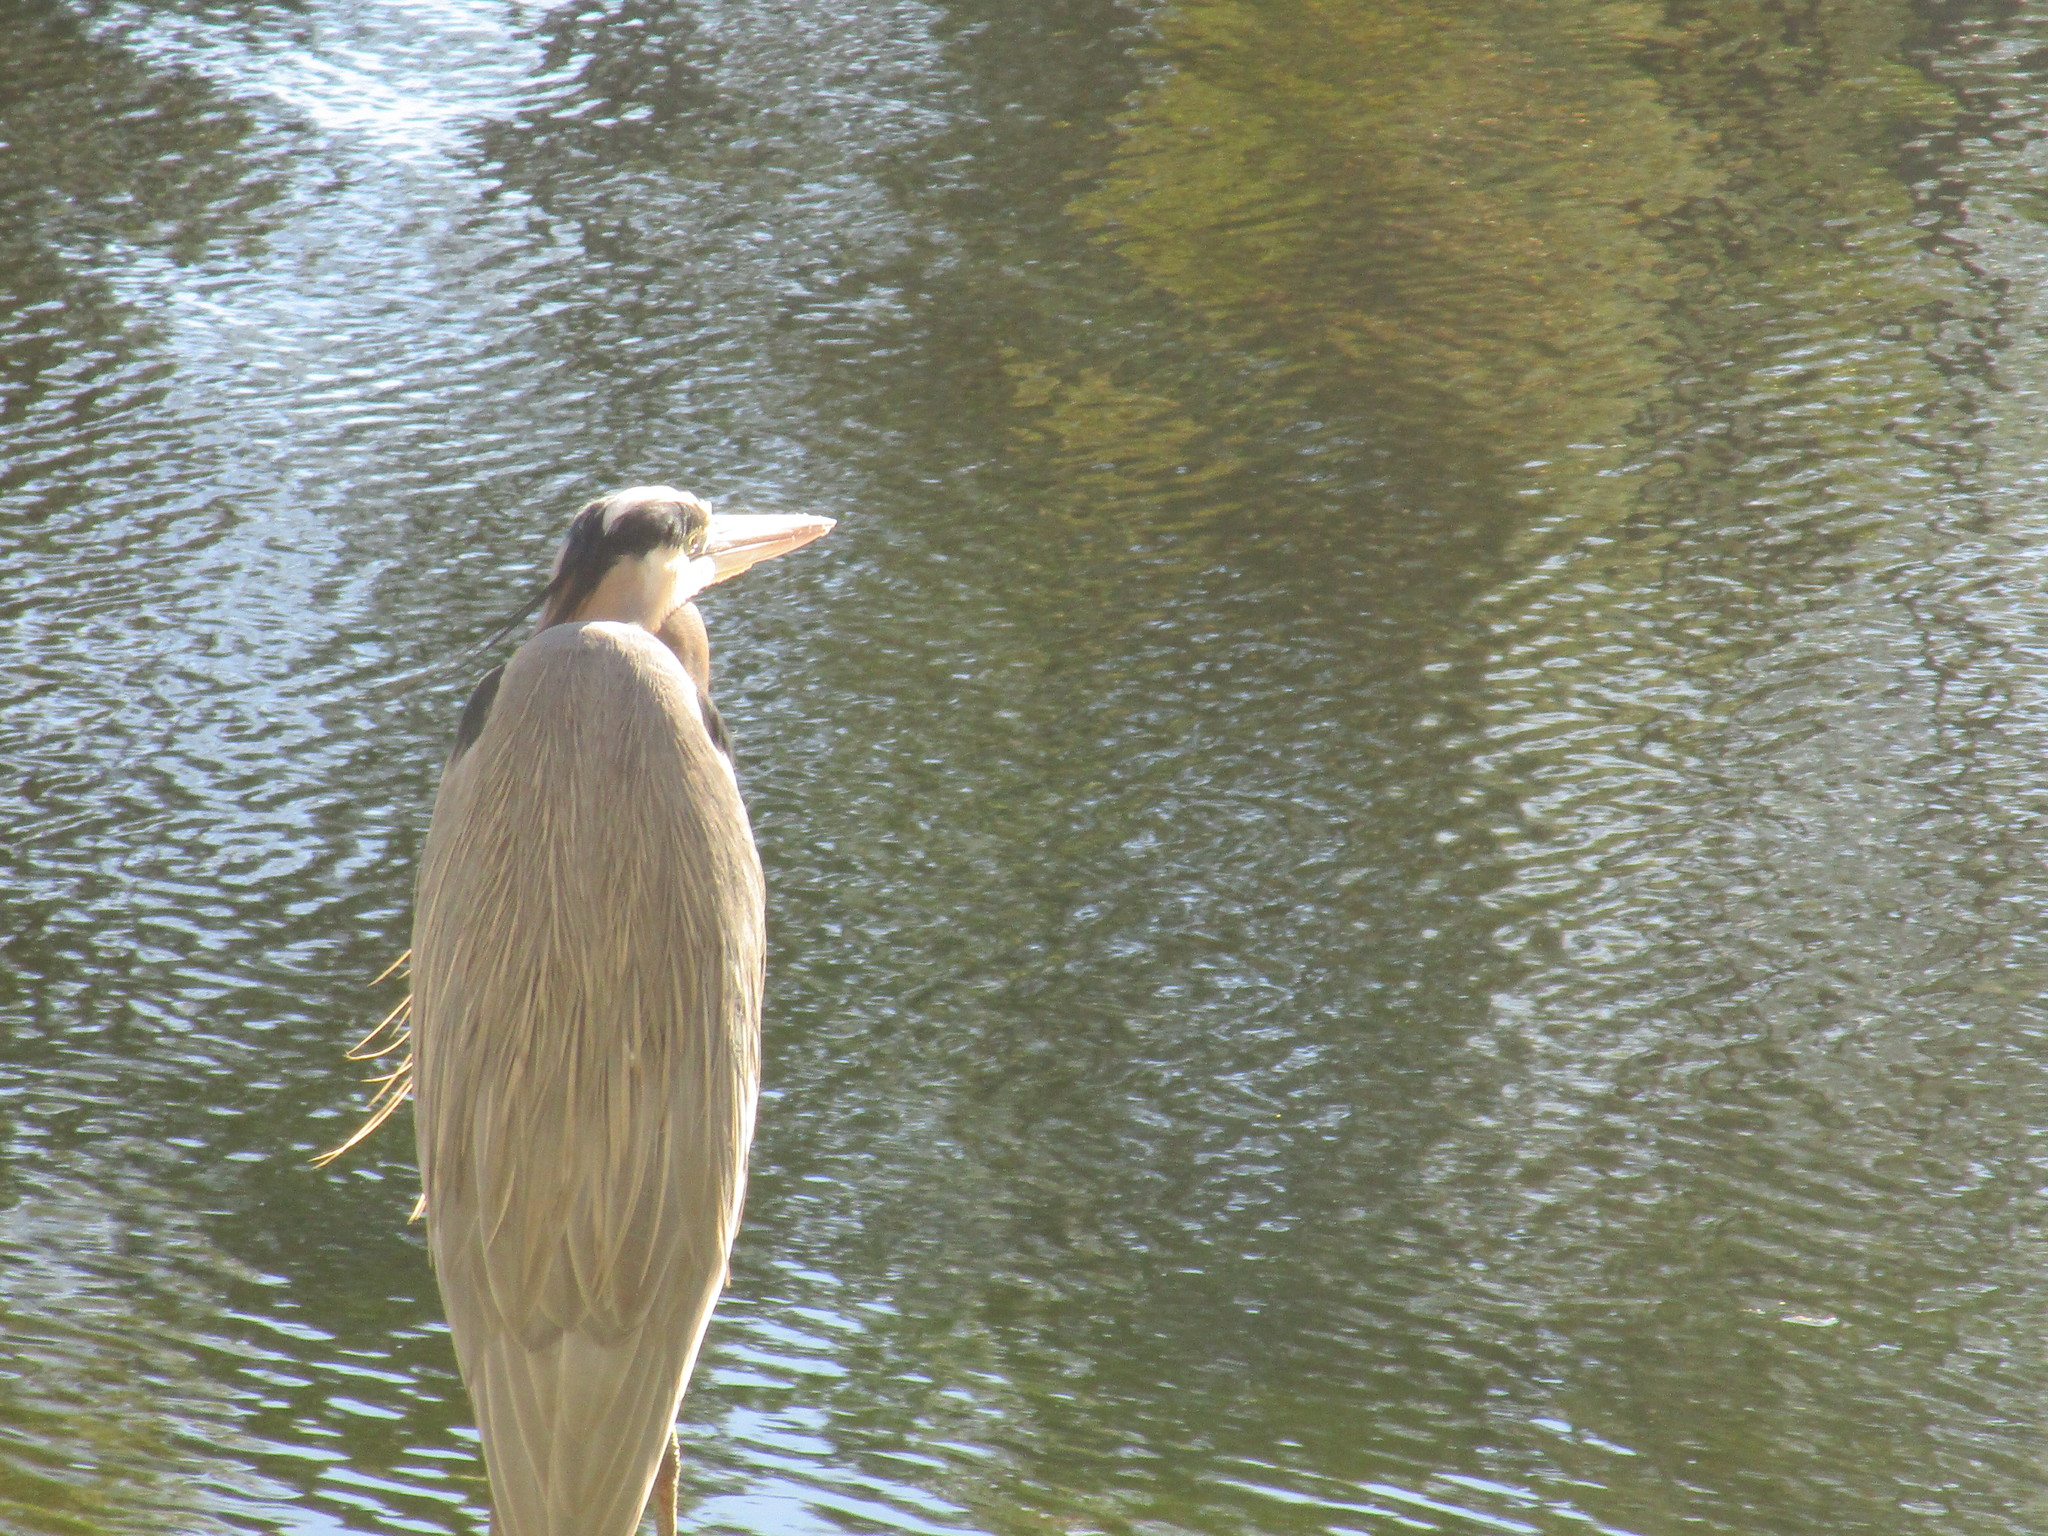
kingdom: Animalia
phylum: Chordata
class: Aves
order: Pelecaniformes
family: Ardeidae
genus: Ardea
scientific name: Ardea herodias
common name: Great blue heron
